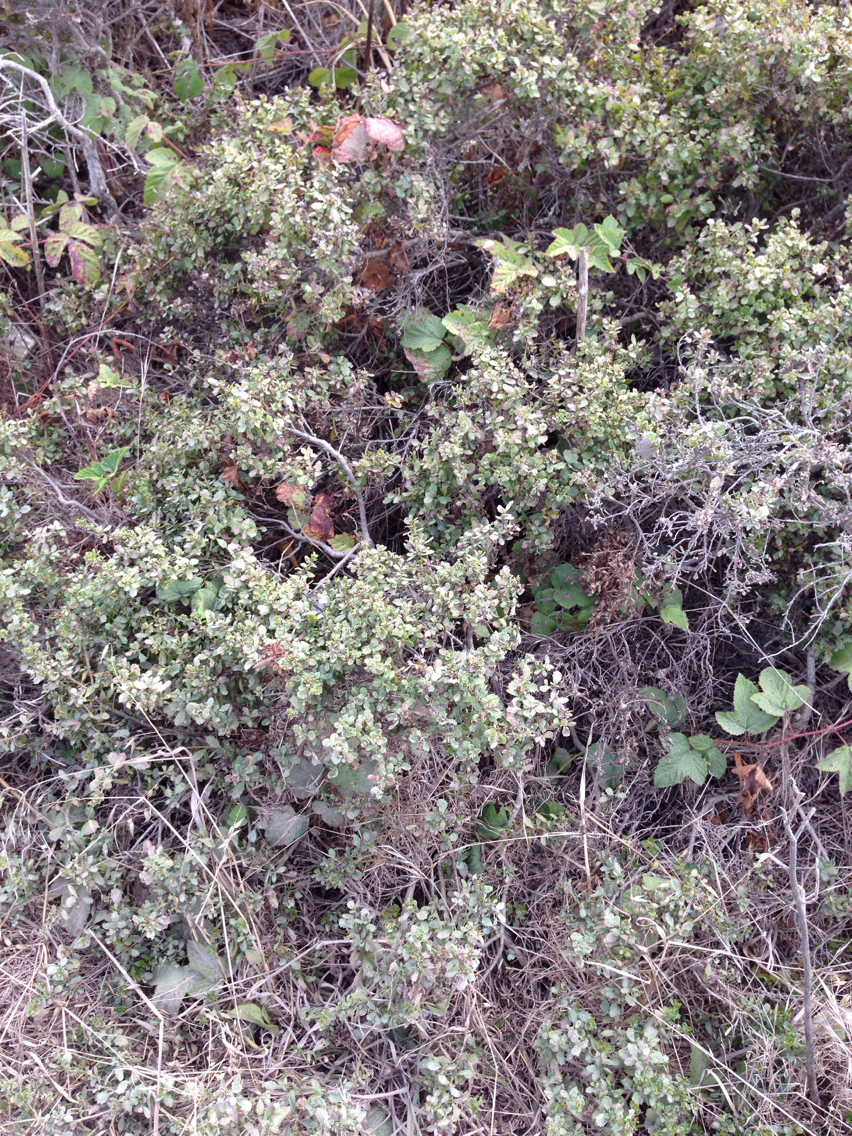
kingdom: Plantae
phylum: Tracheophyta
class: Magnoliopsida
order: Asterales
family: Asteraceae
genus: Baccharis
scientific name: Baccharis pilularis
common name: Coyotebrush
